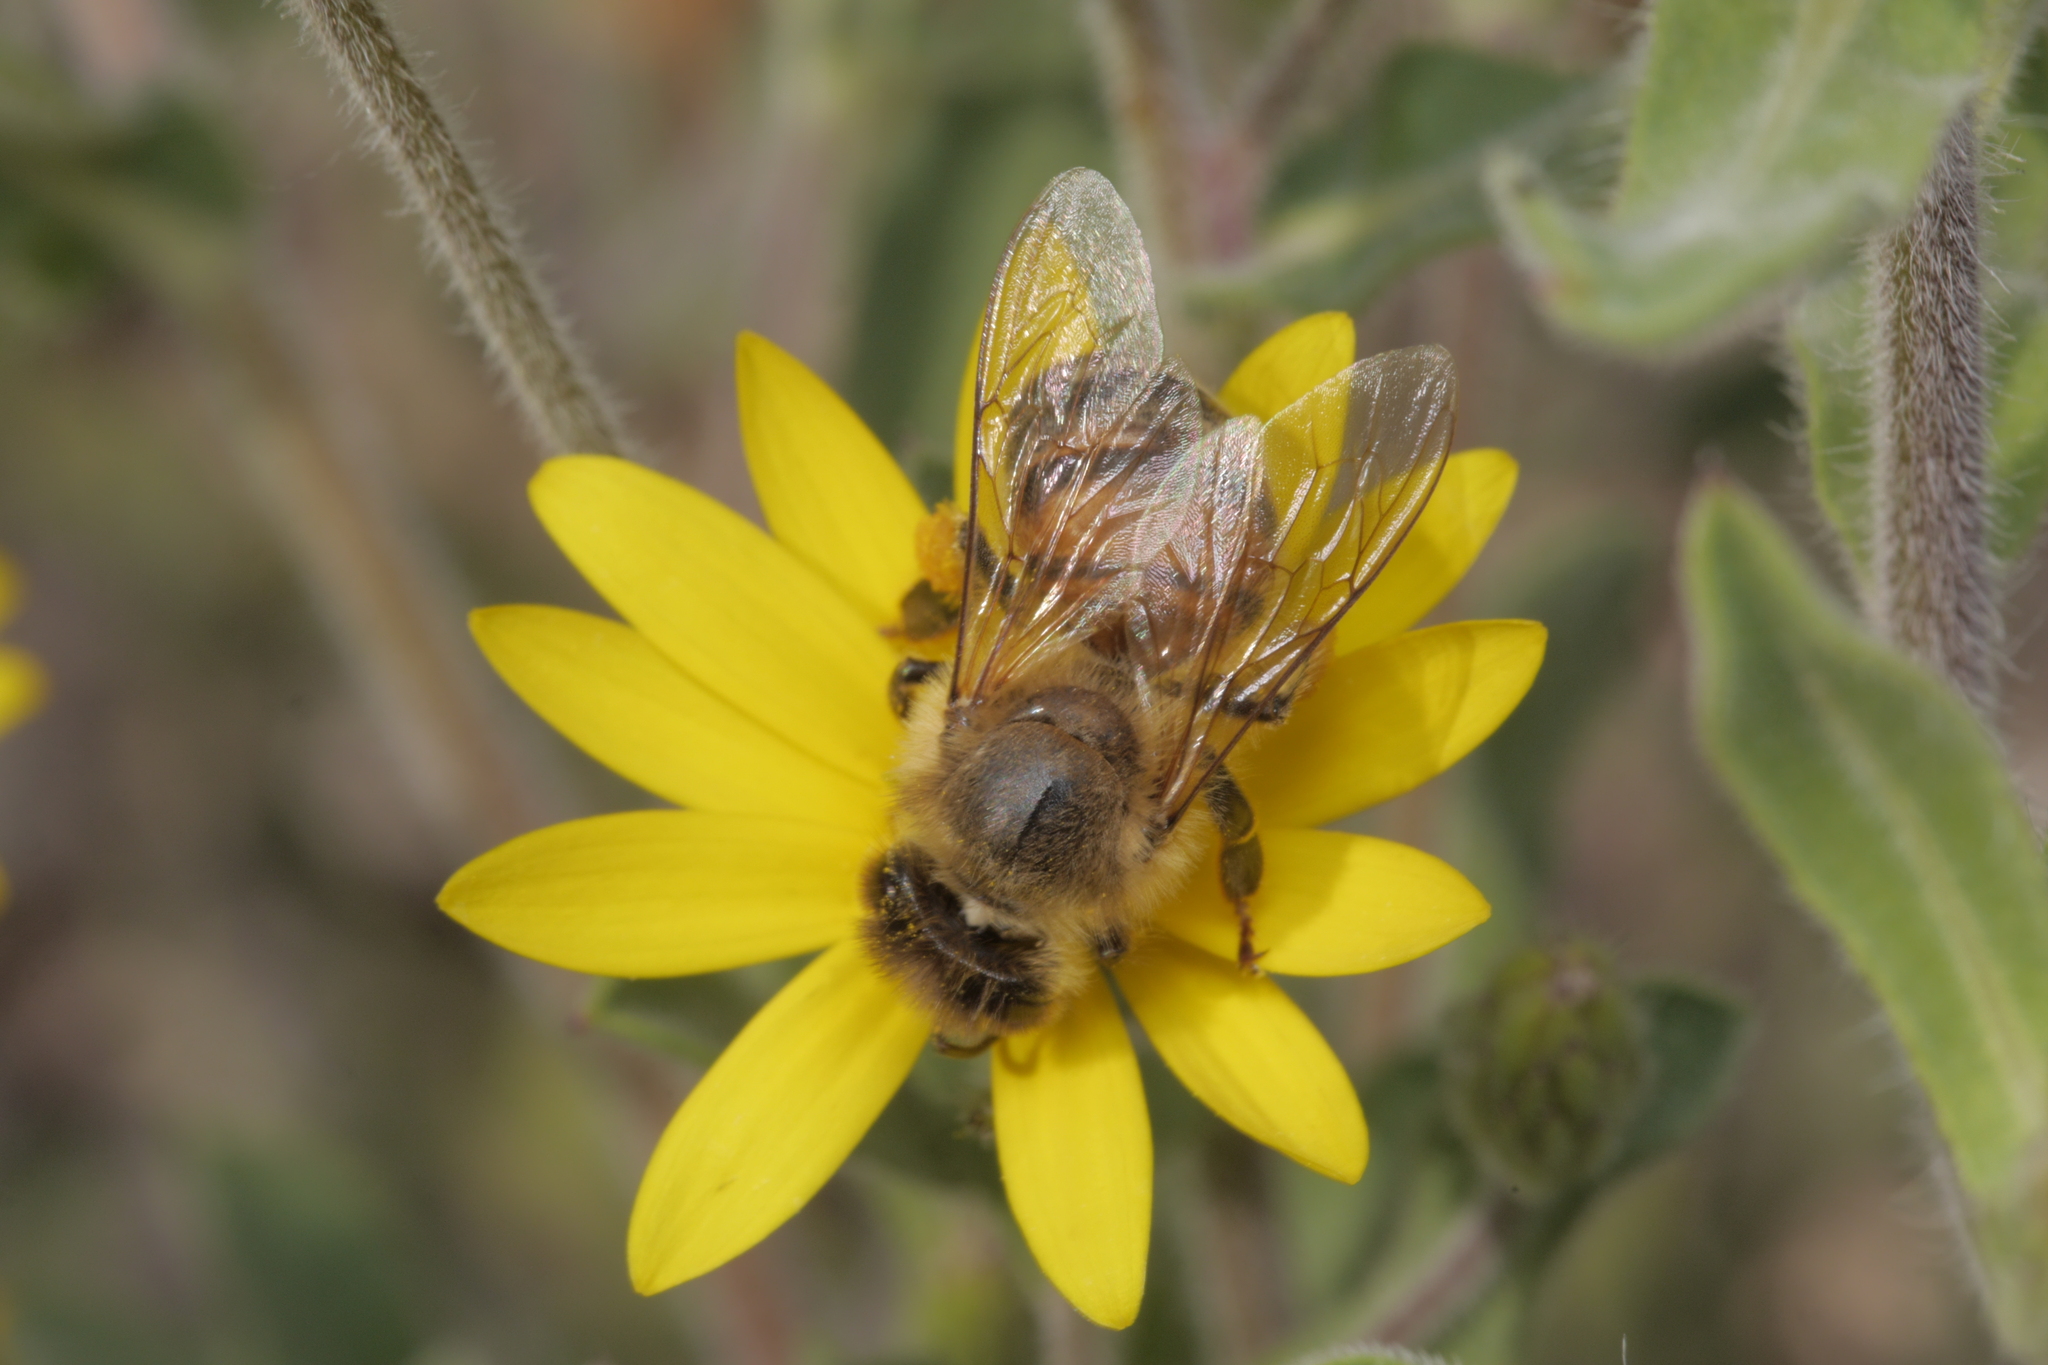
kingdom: Animalia
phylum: Arthropoda
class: Insecta
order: Hymenoptera
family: Apidae
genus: Apis
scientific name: Apis mellifera
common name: Honey bee
